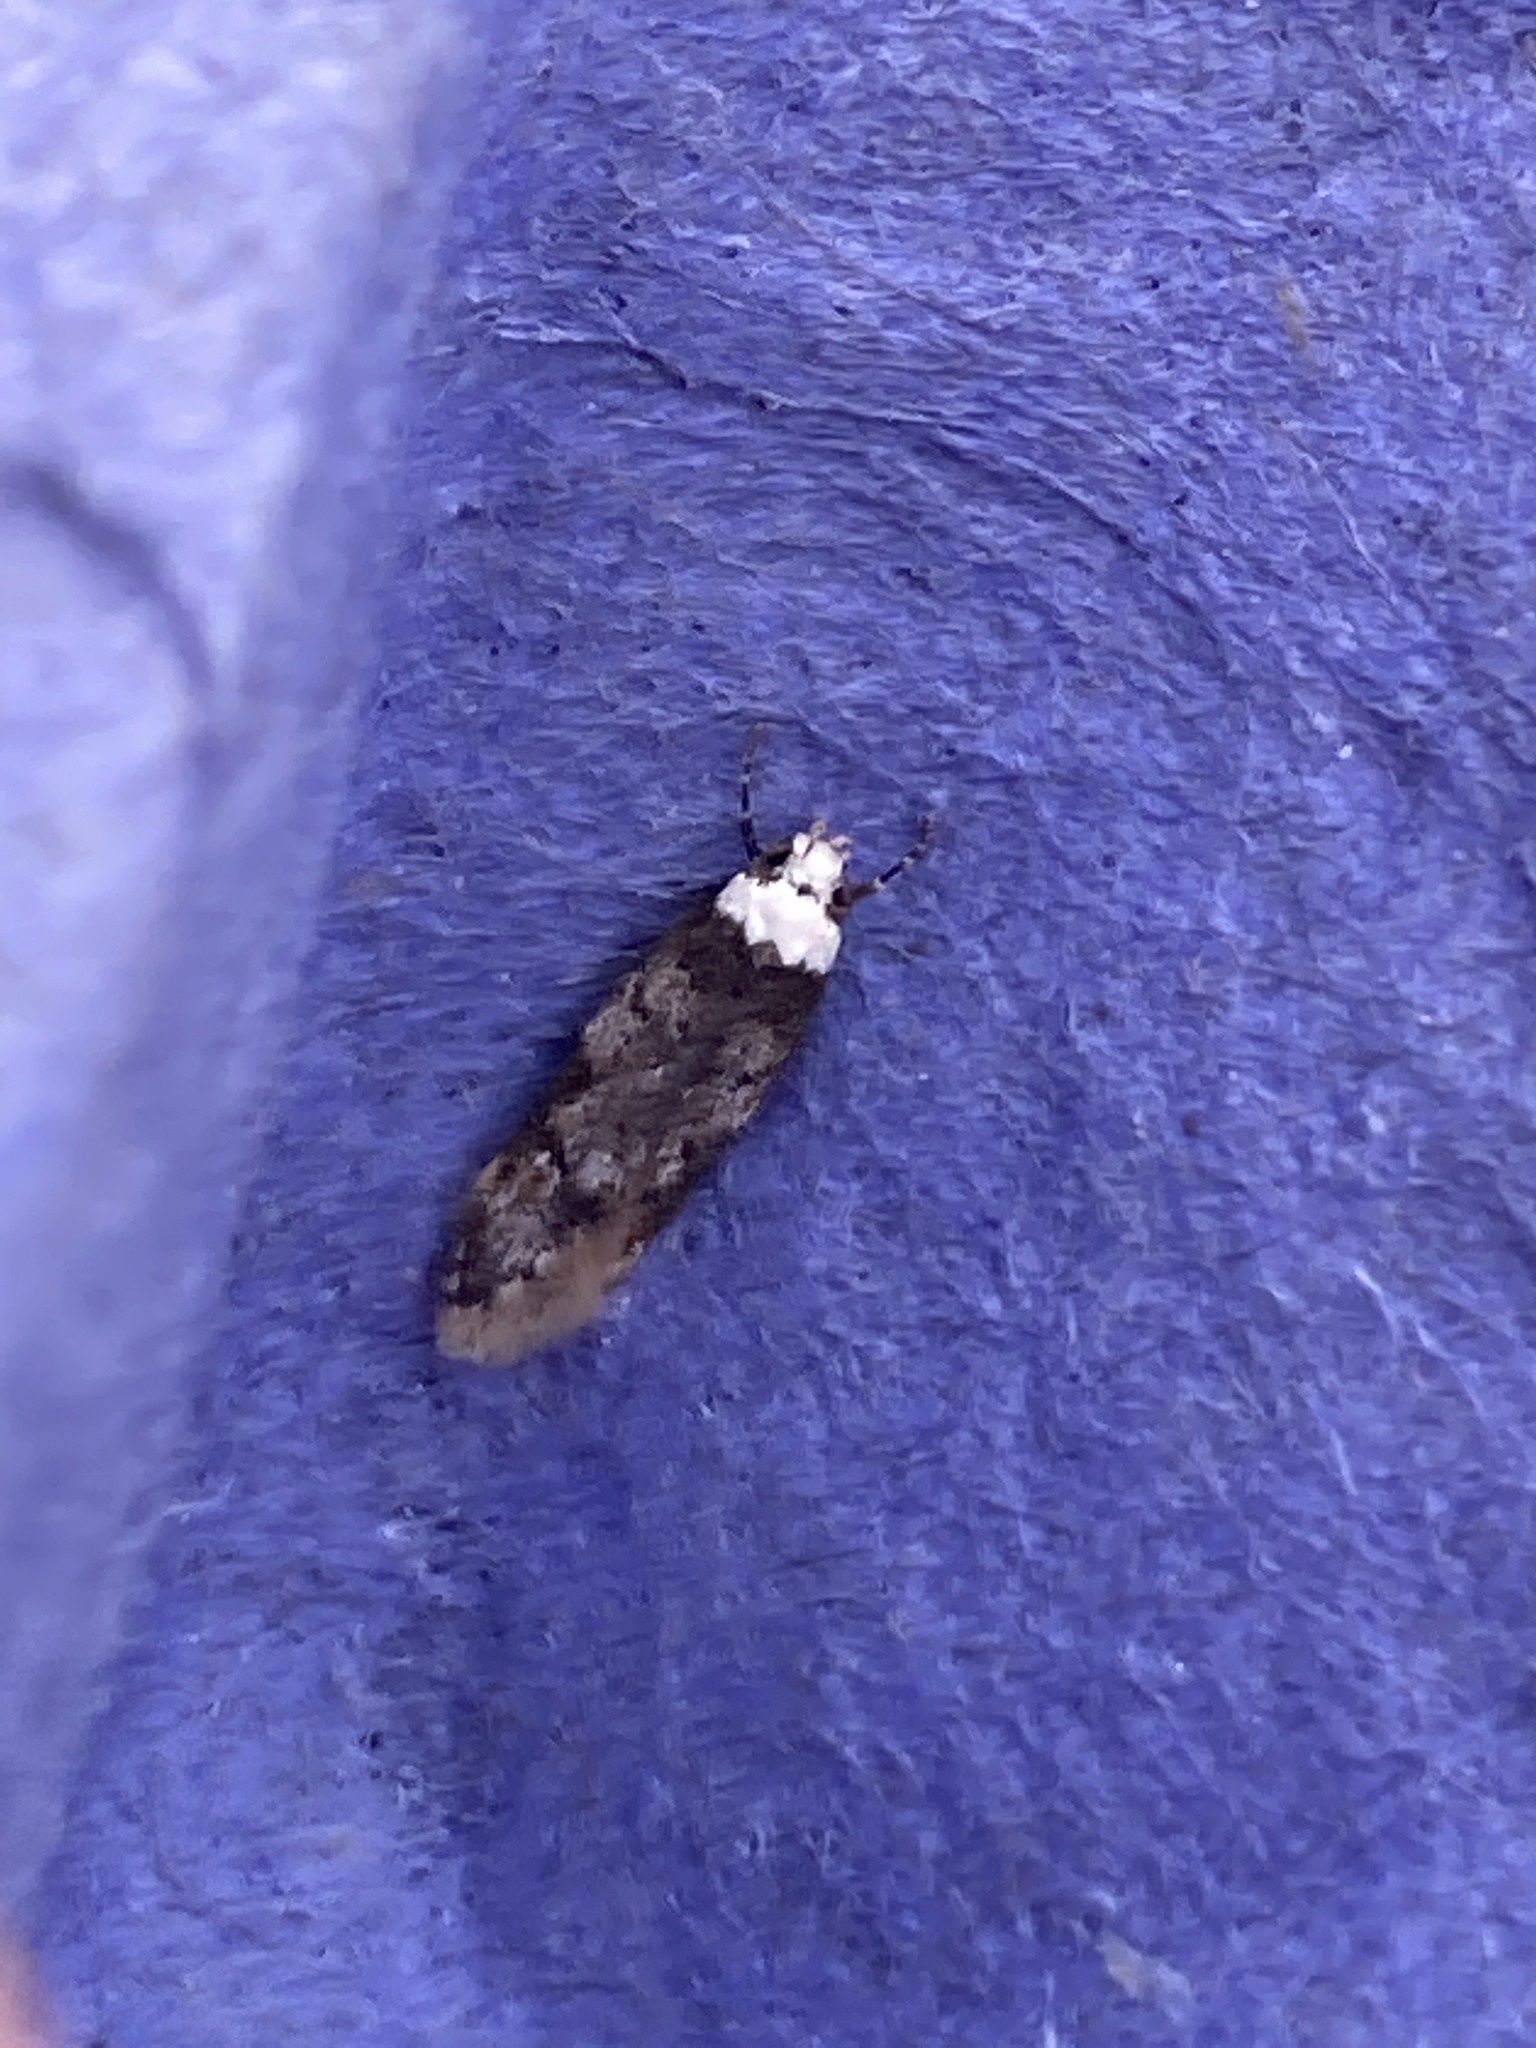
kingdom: Animalia
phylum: Arthropoda
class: Insecta
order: Lepidoptera
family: Oecophoridae
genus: Endrosis
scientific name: Endrosis sarcitrella
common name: White-shouldered house moth
